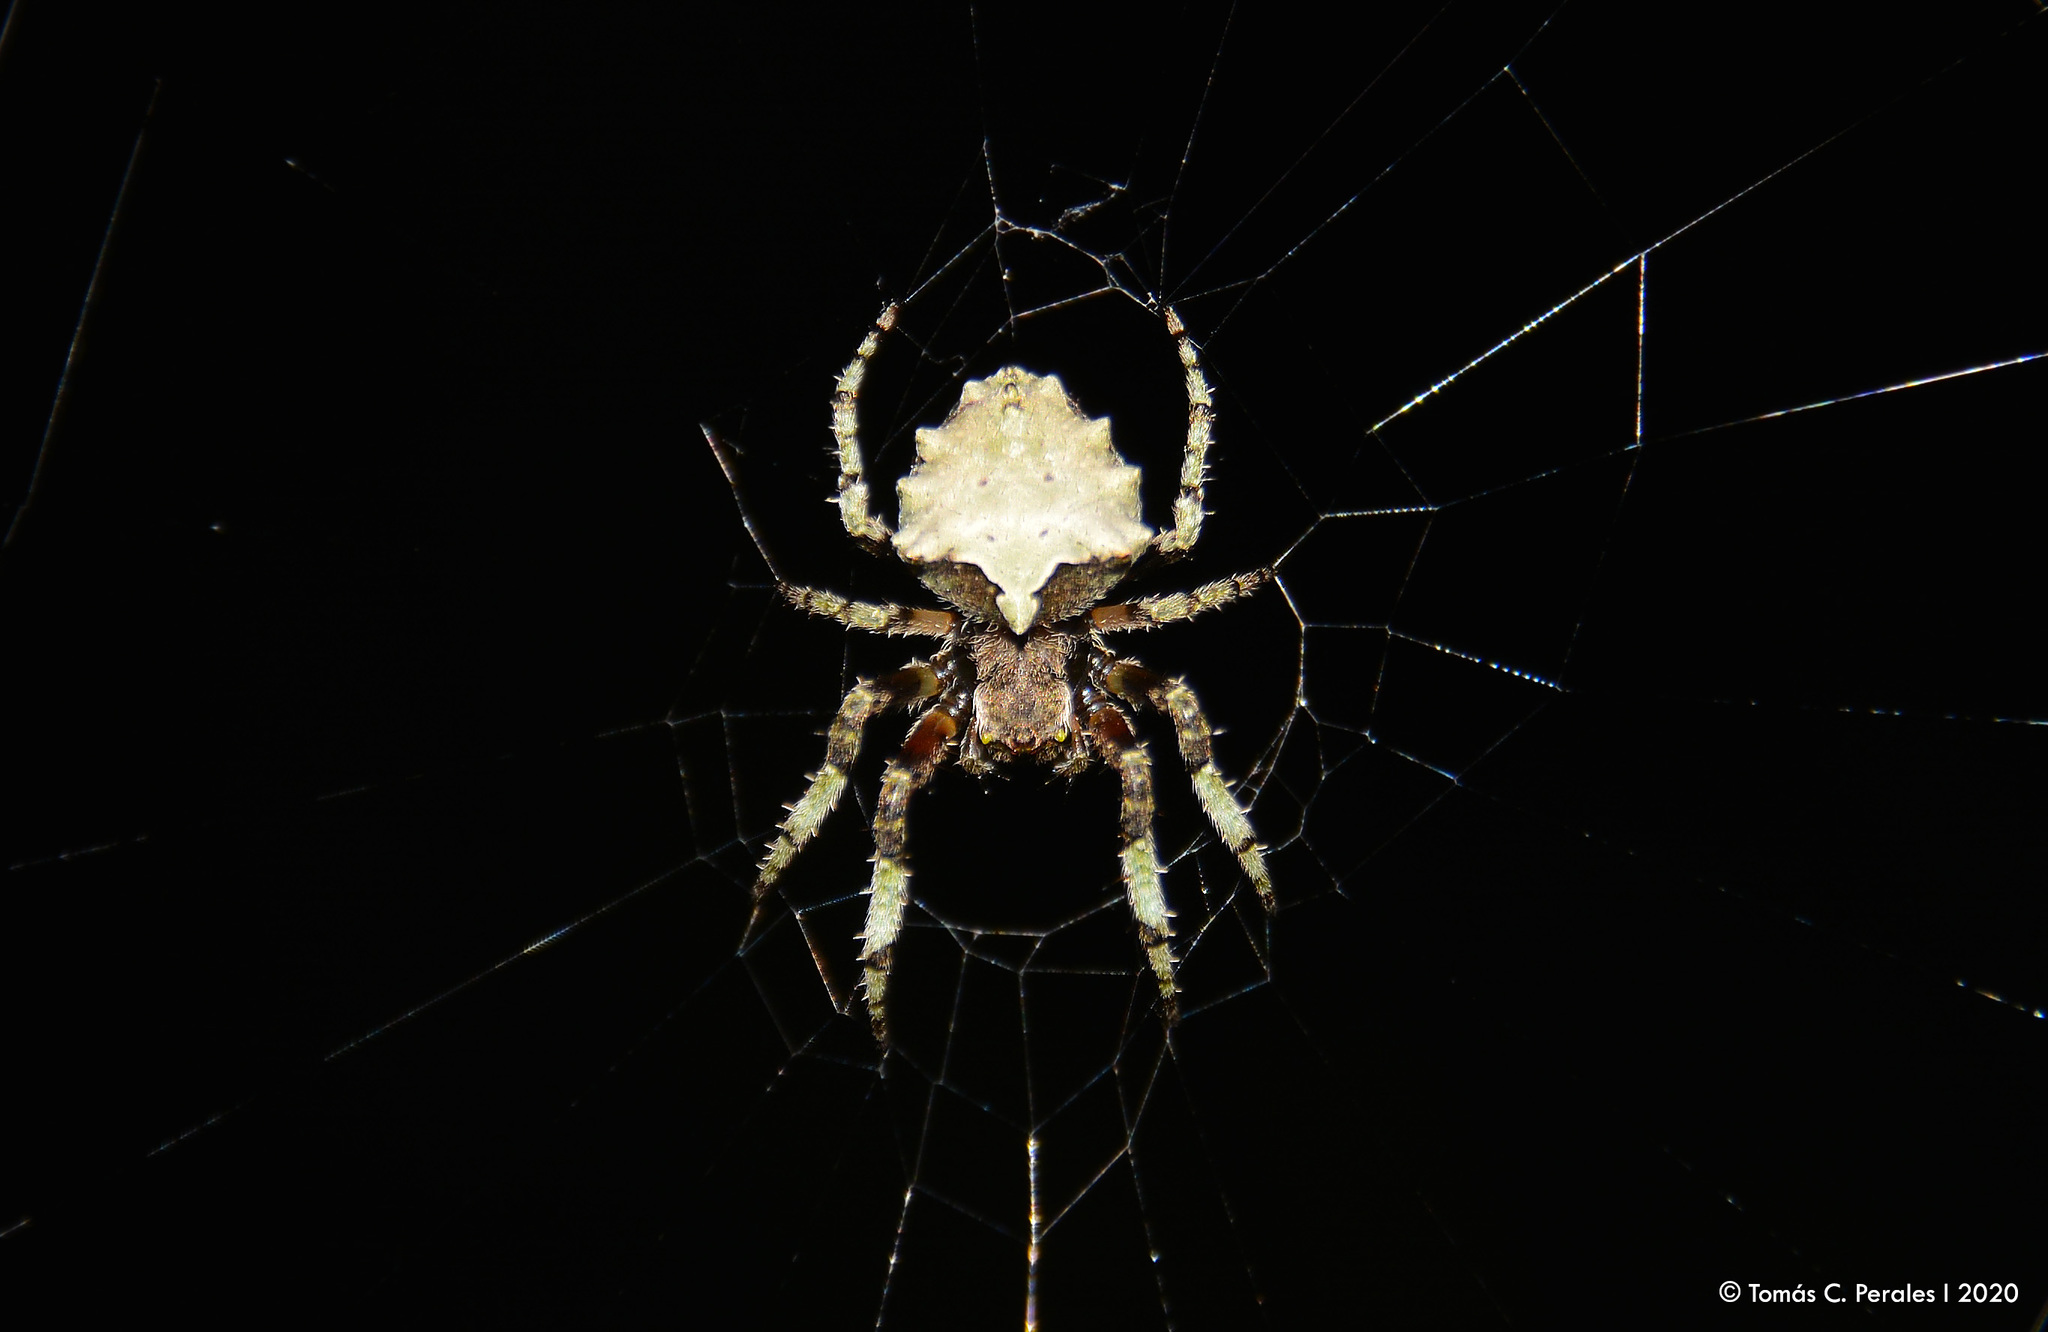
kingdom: Animalia
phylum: Arthropoda
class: Arachnida
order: Araneae
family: Araneidae
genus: Parawixia
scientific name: Parawixia audax
